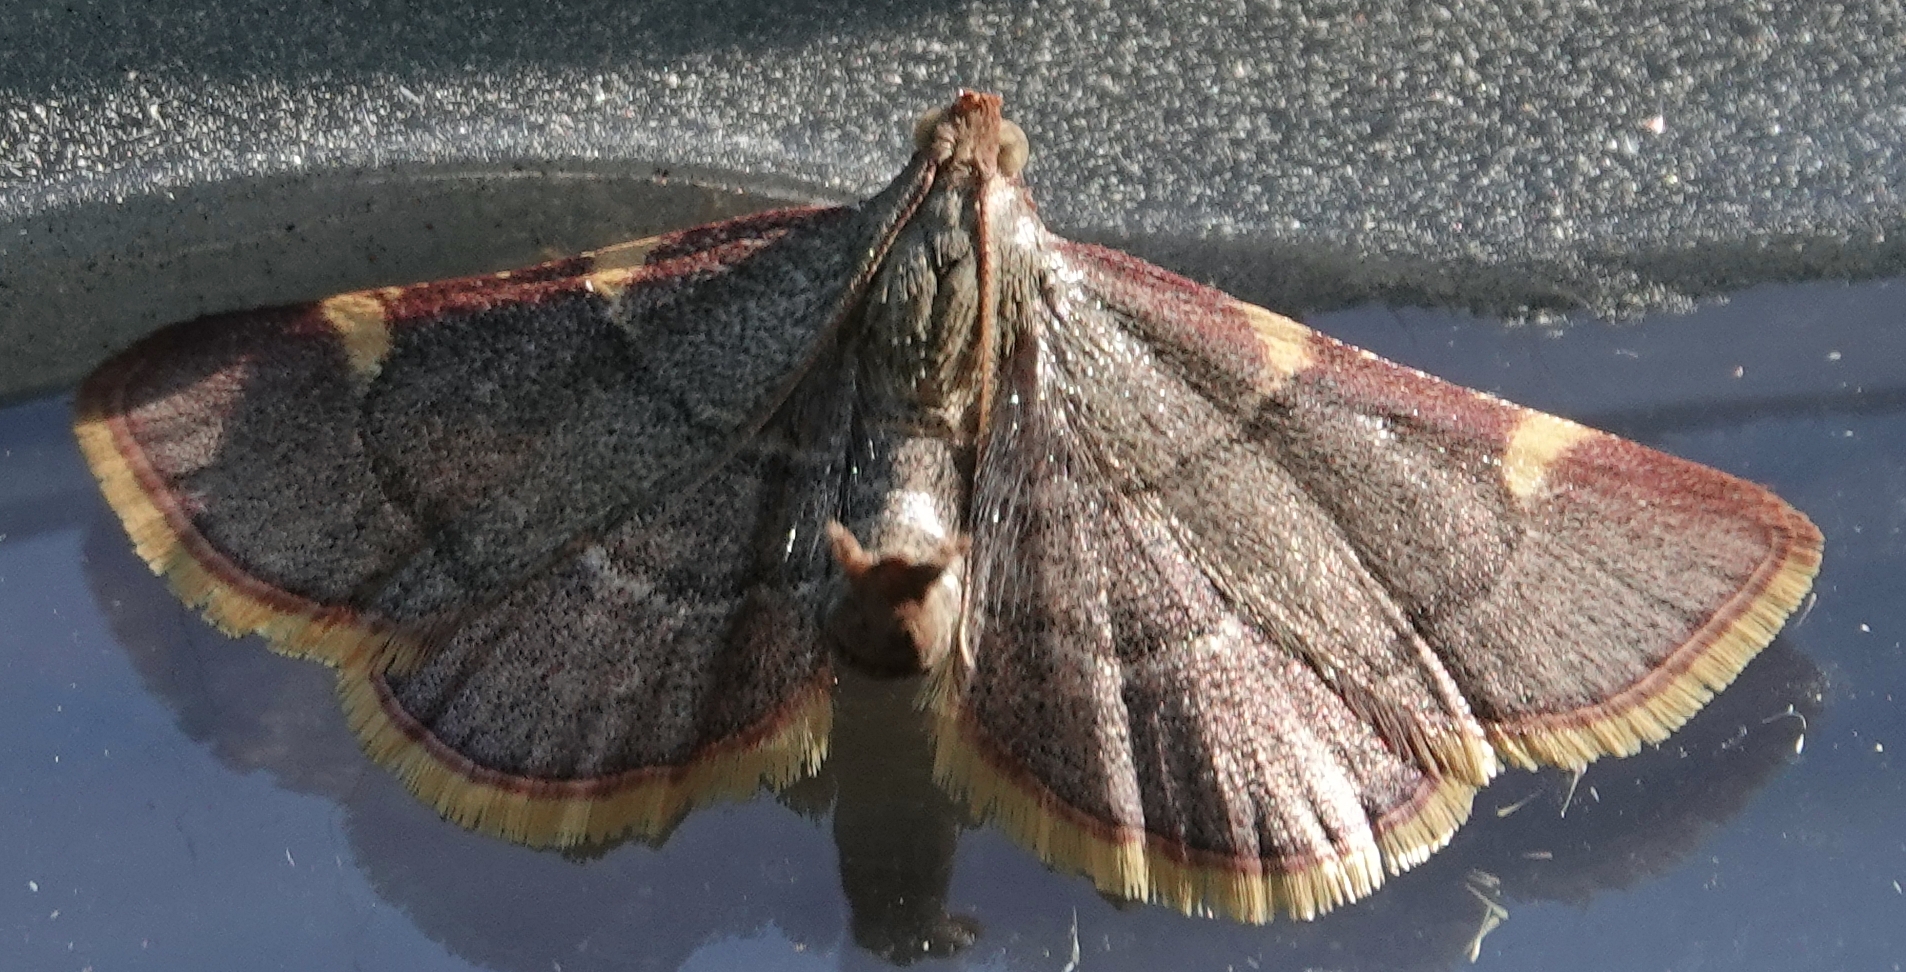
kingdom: Animalia
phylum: Arthropoda
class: Insecta
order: Lepidoptera
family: Pyralidae
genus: Hypsopygia
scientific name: Hypsopygia olinalis
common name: Yellow-fringed dolichomia moth
